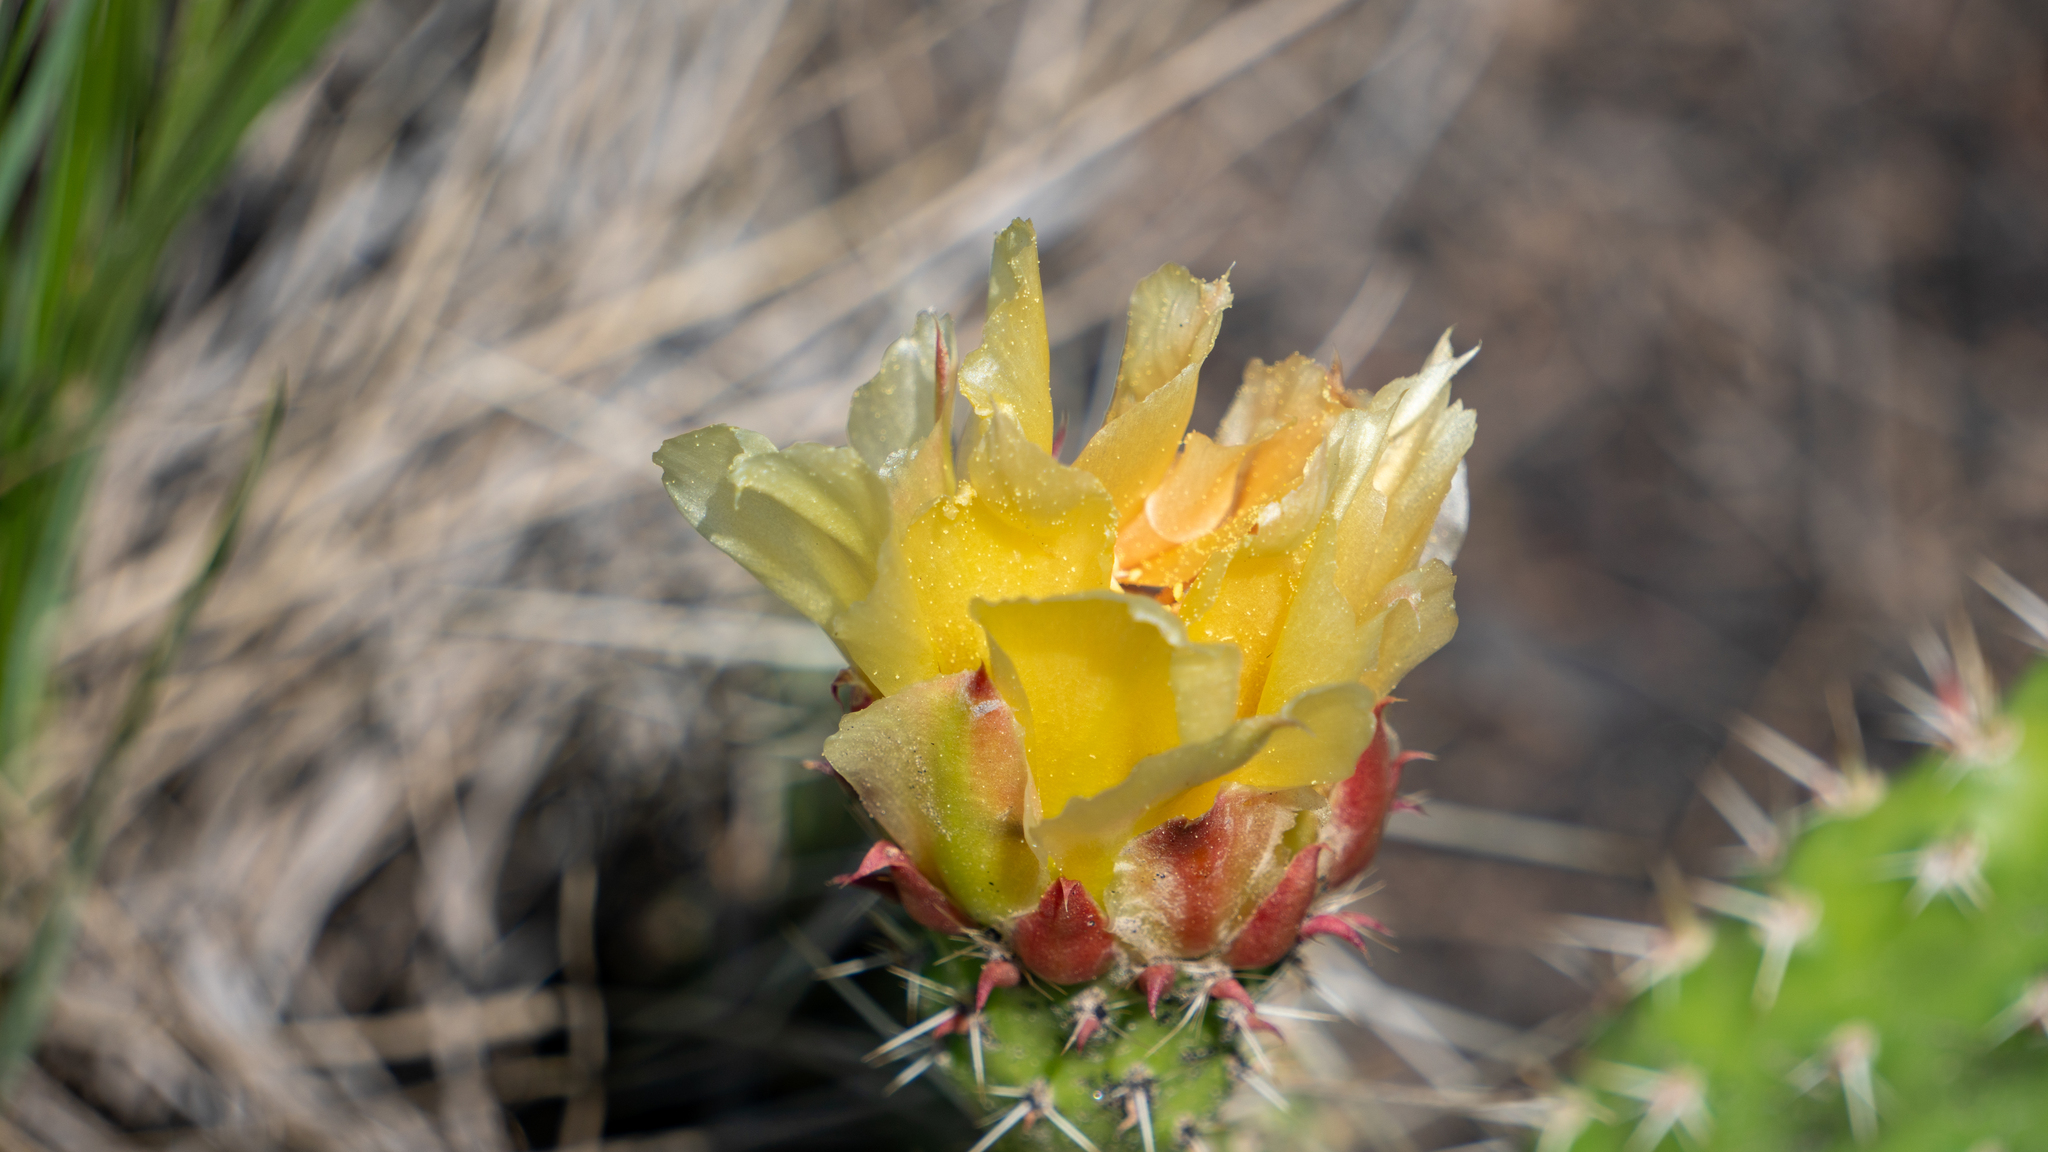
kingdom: Plantae
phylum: Tracheophyta
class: Magnoliopsida
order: Caryophyllales
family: Cactaceae
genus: Opuntia
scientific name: Opuntia polyacantha
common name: Plains prickly-pear
